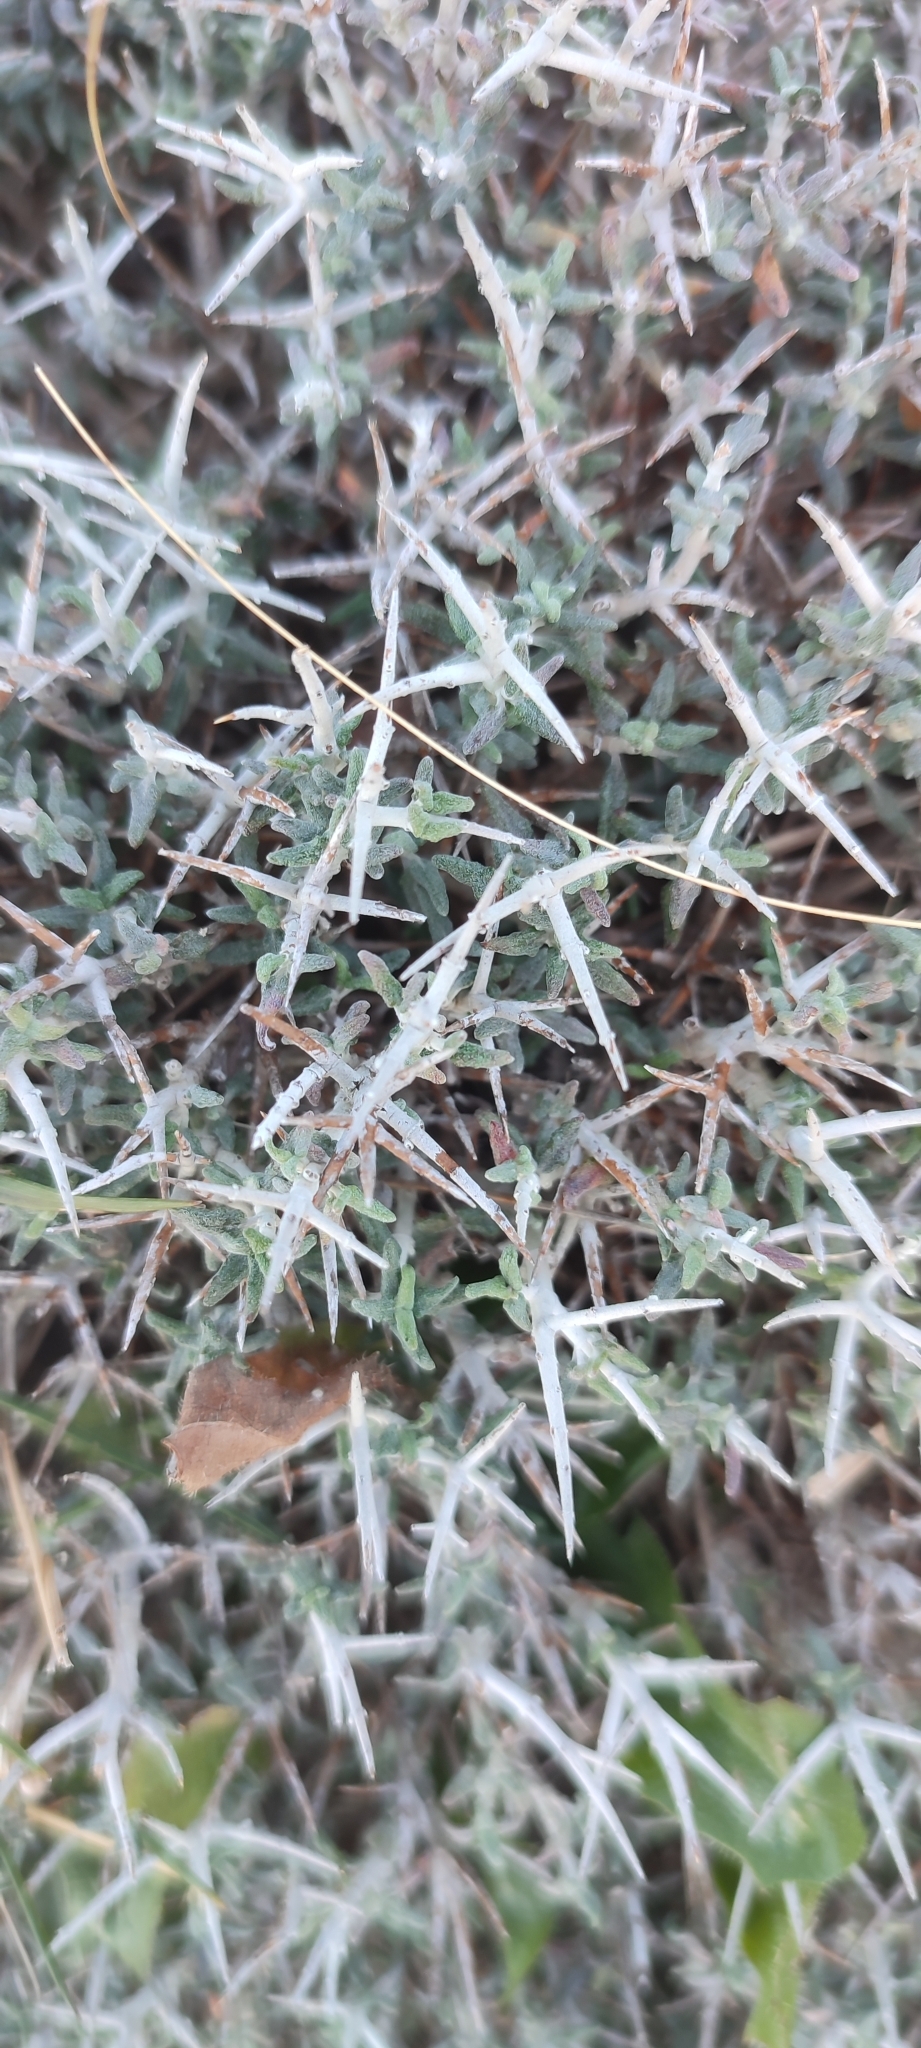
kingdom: Plantae
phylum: Tracheophyta
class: Magnoliopsida
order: Lamiales
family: Lamiaceae
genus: Teucrium
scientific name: Teucrium balearicum
